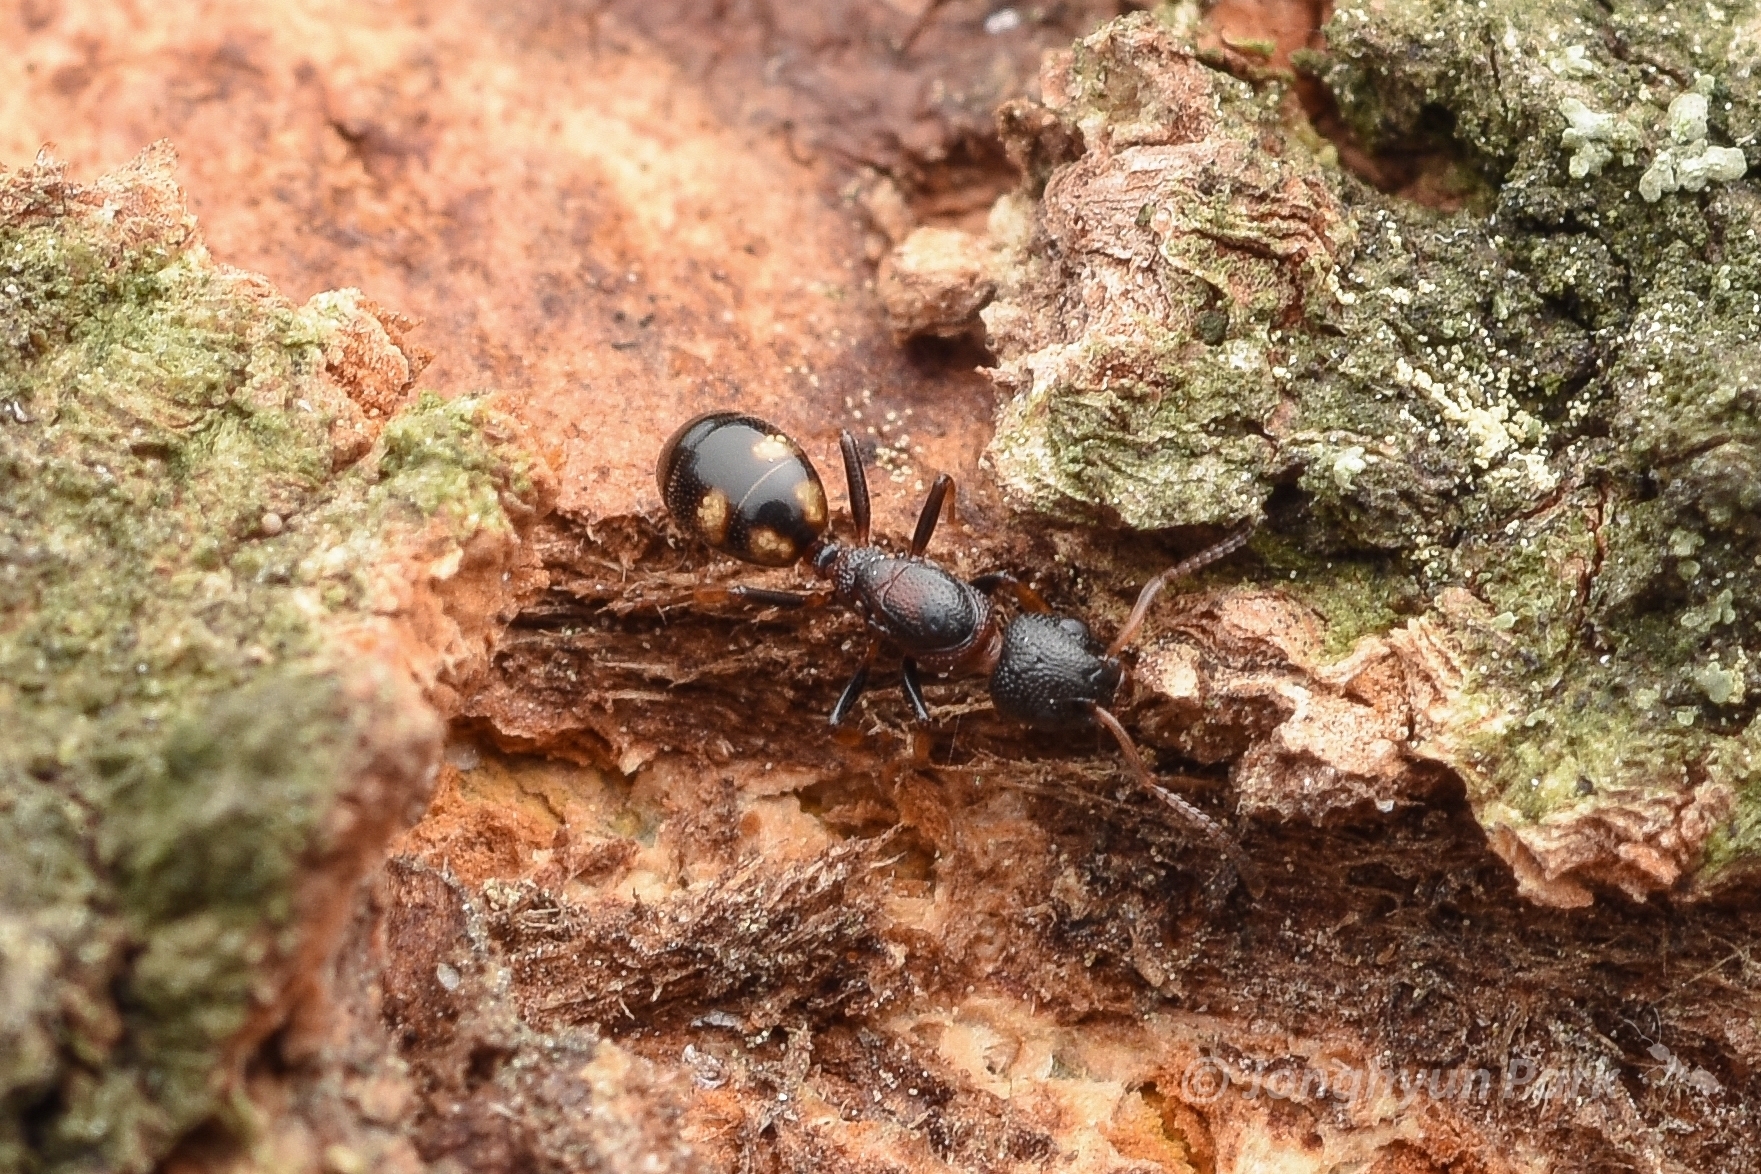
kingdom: Animalia
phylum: Arthropoda
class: Insecta
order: Hymenoptera
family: Formicidae
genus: Dolichoderus
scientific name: Dolichoderus sibiricus
